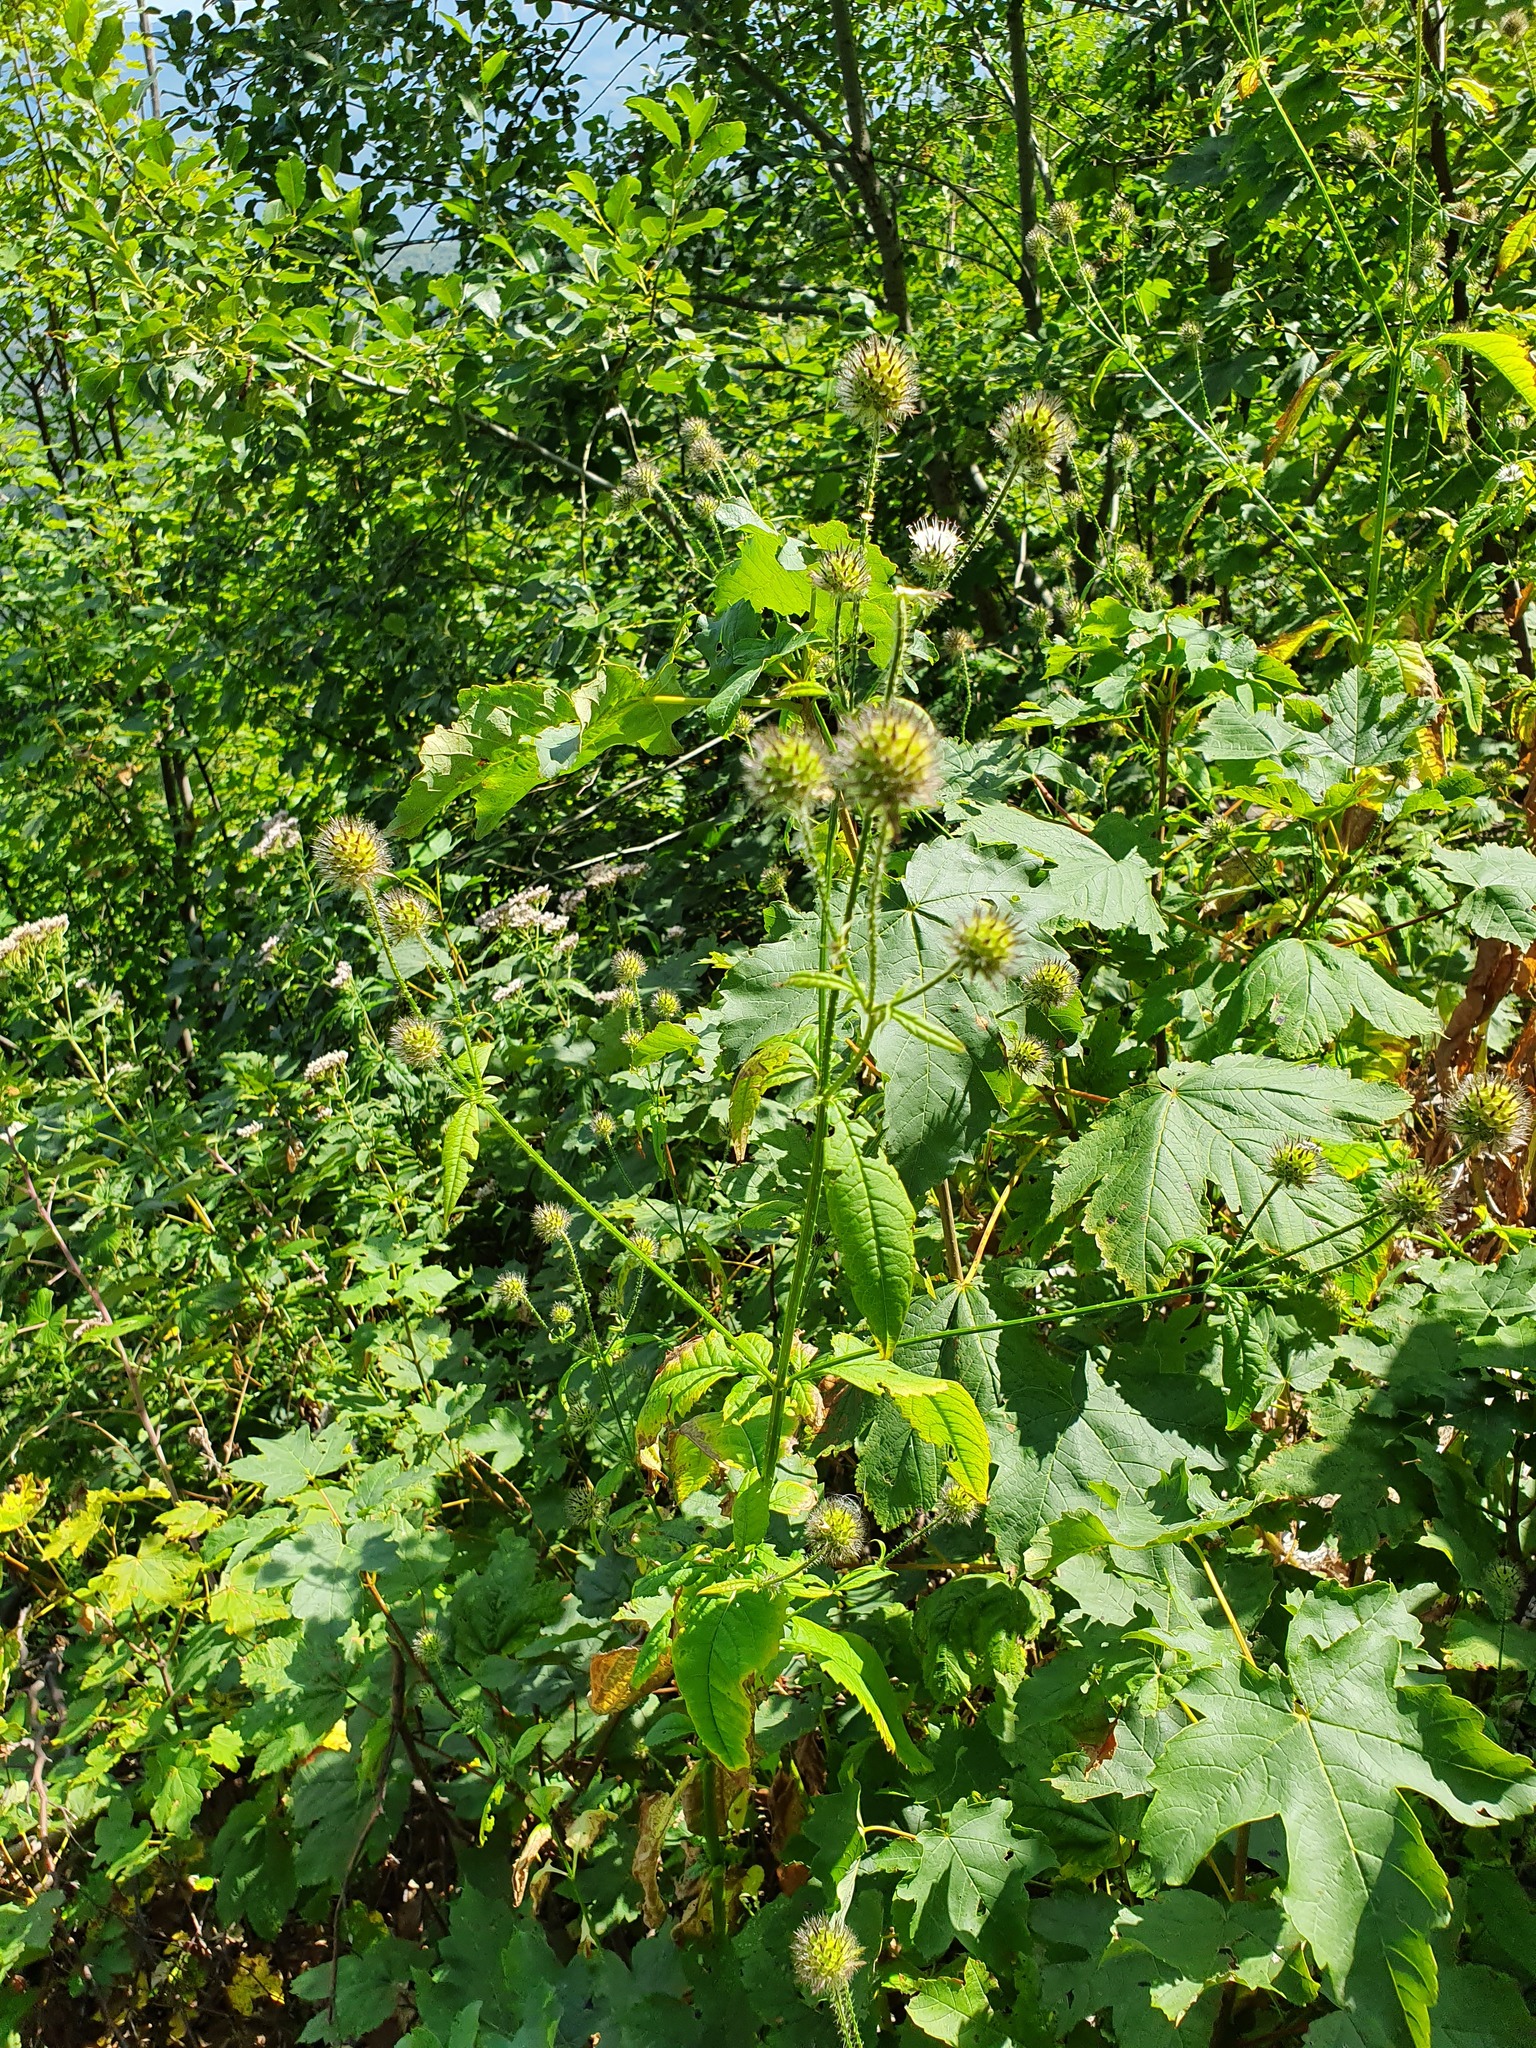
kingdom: Plantae
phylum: Tracheophyta
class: Magnoliopsida
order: Dipsacales
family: Caprifoliaceae
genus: Dipsacus
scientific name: Dipsacus pilosus
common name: Small teasel
